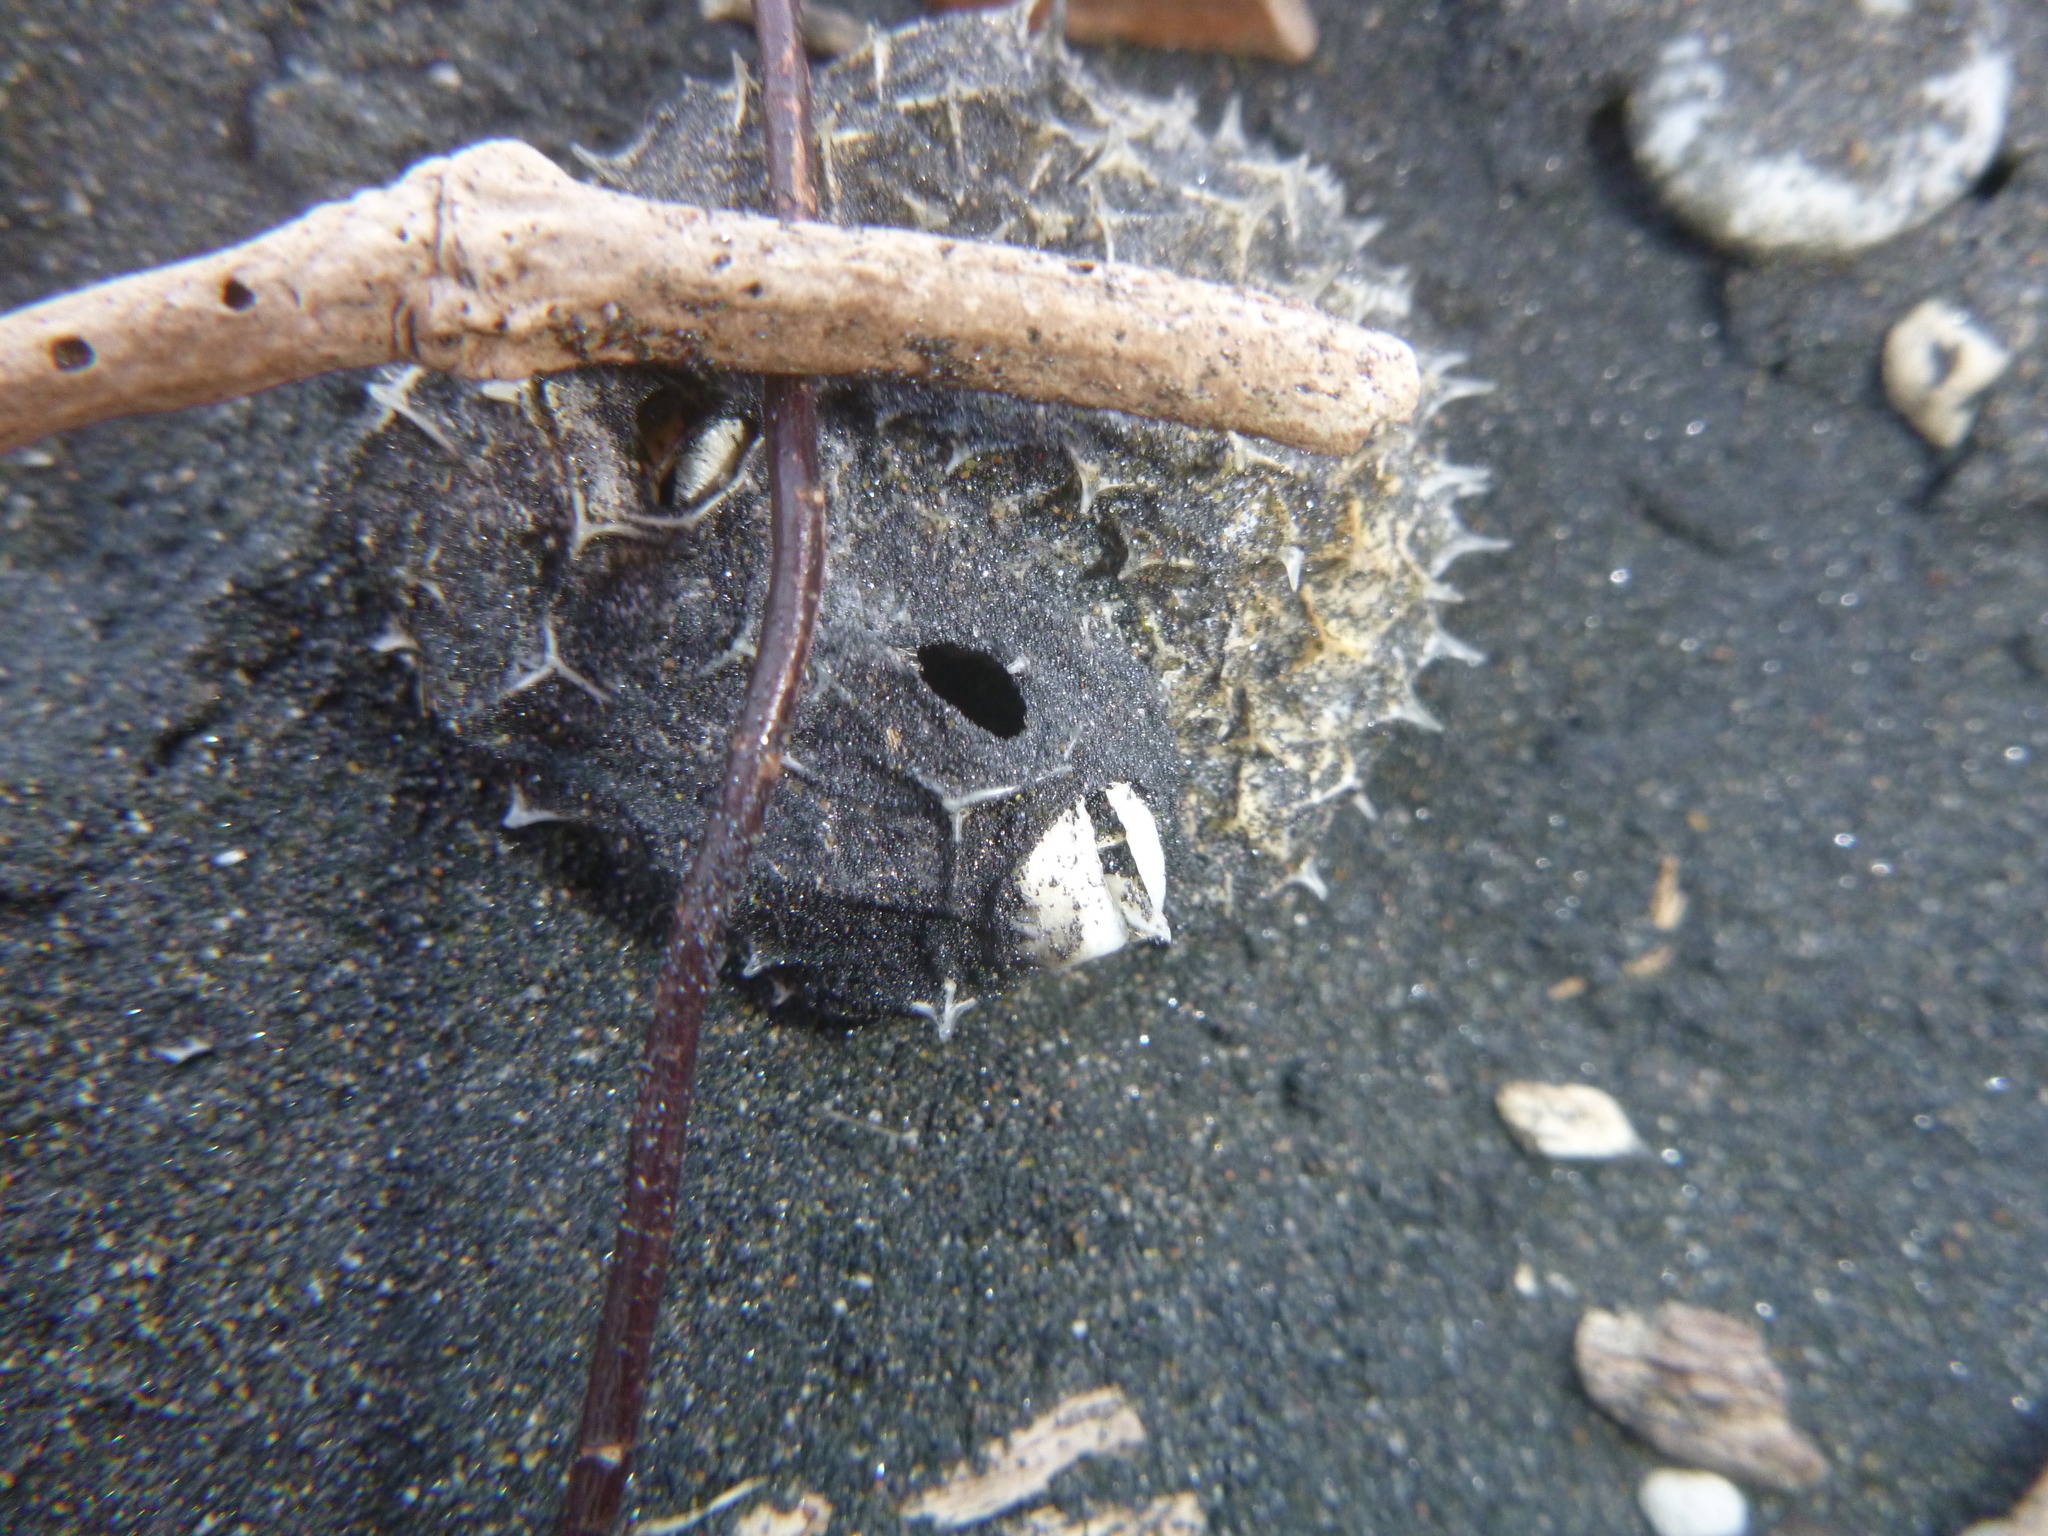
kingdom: Animalia
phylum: Chordata
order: Tetraodontiformes
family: Diodontidae
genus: Allomycterus
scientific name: Allomycterus pilatus
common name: No common name
